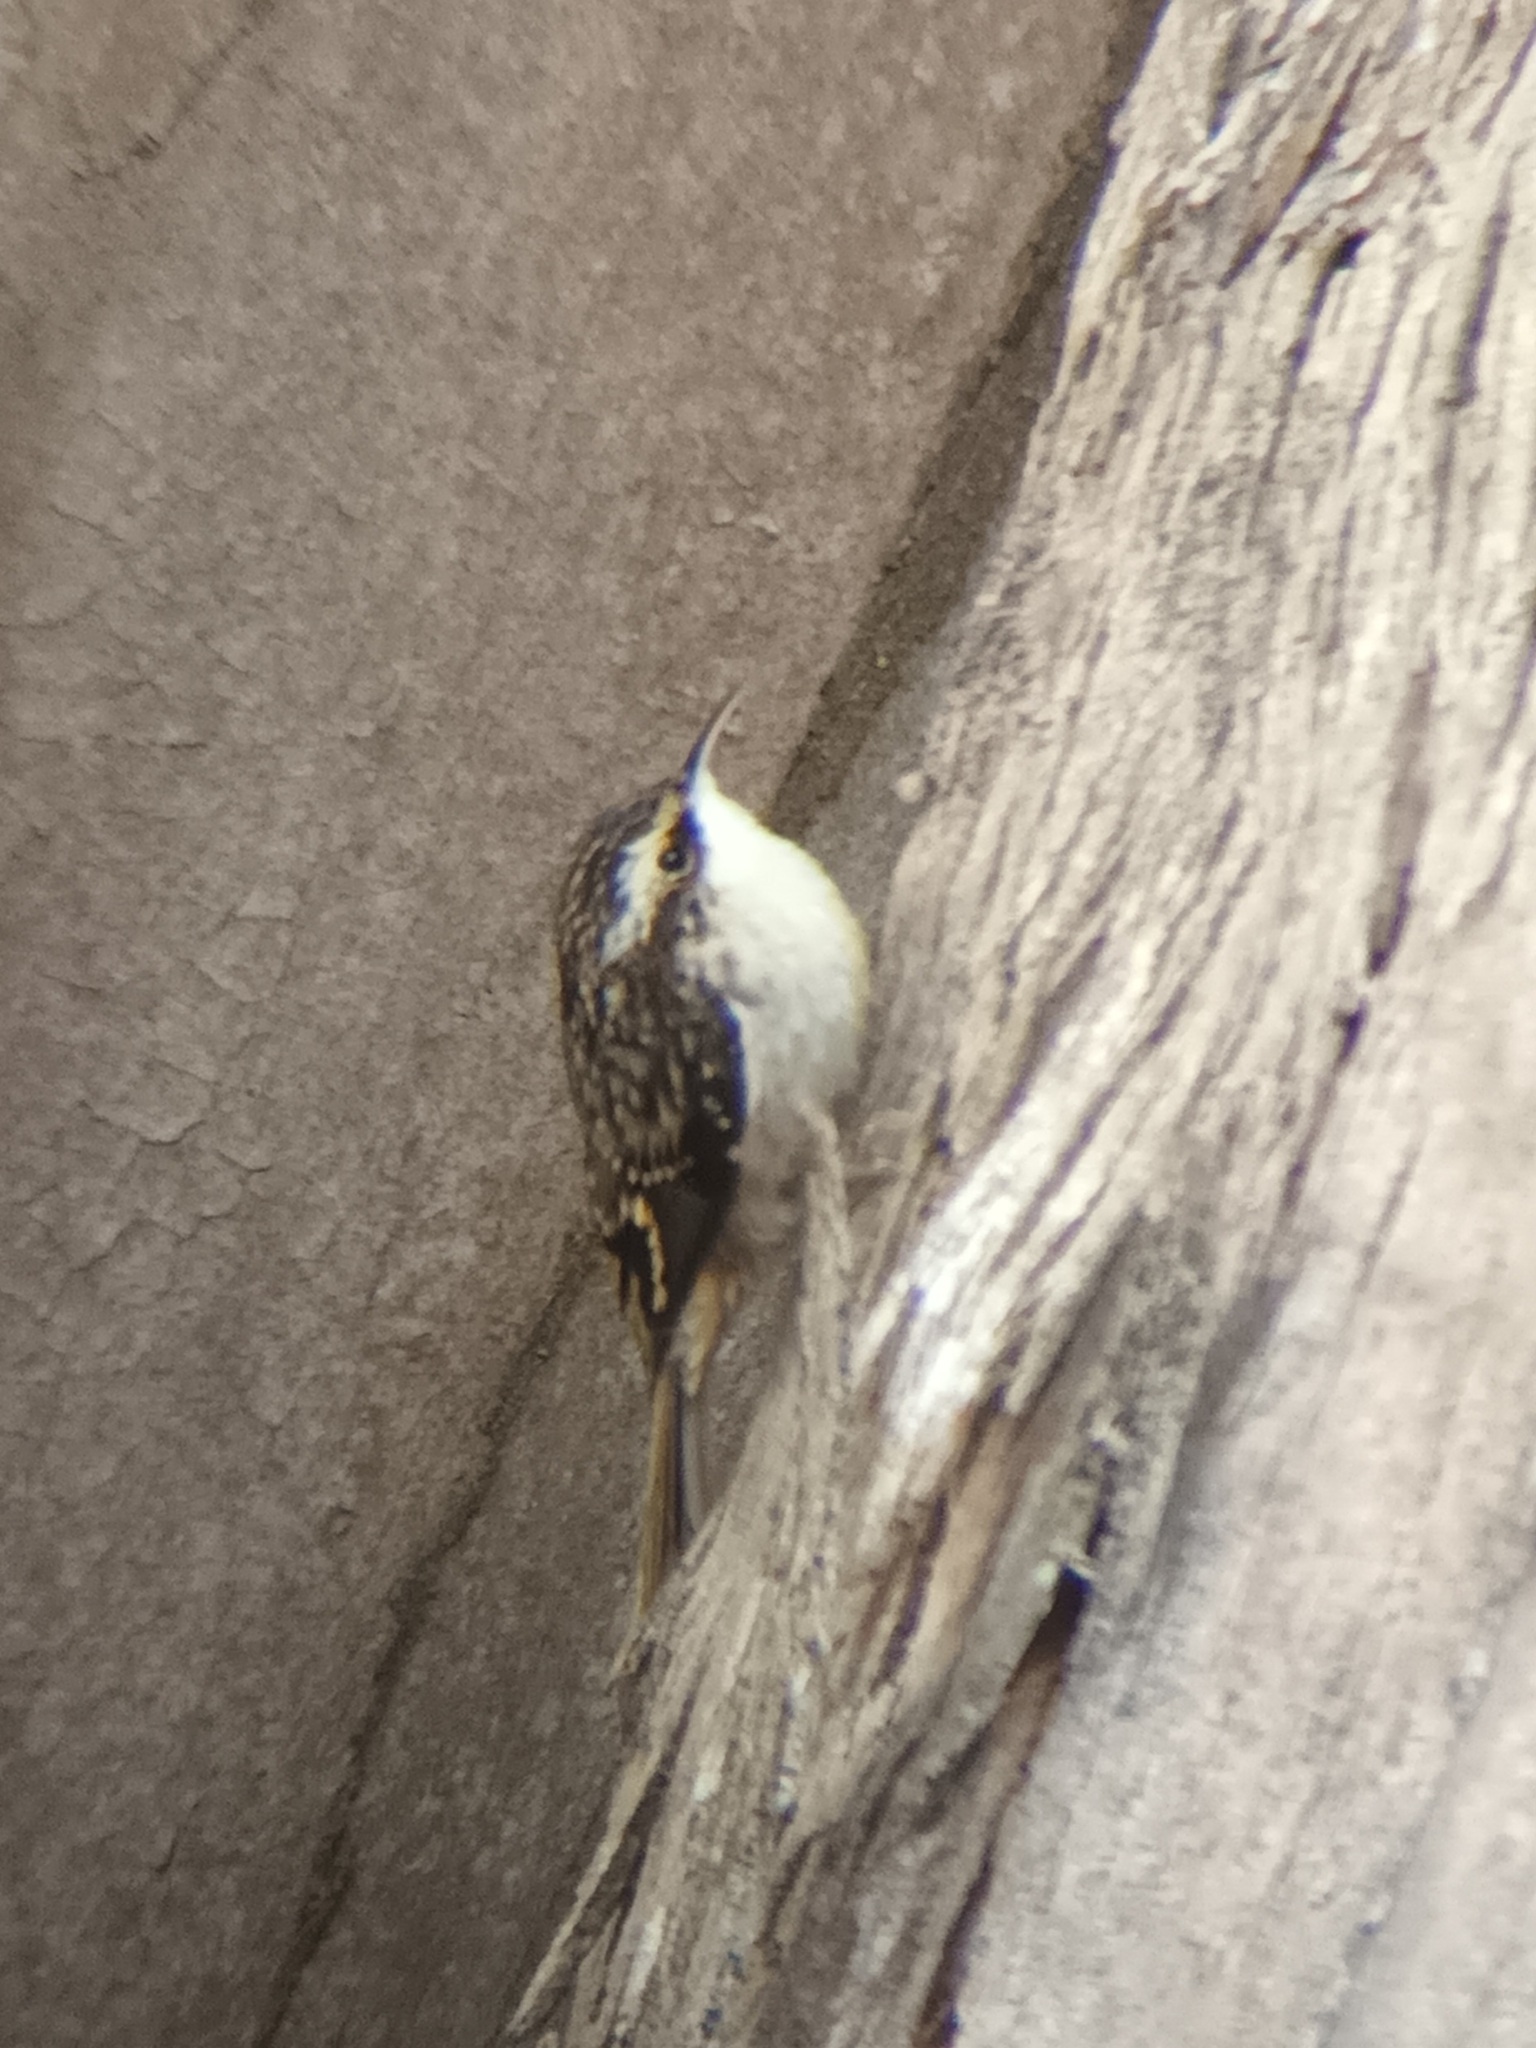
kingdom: Animalia
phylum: Chordata
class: Aves
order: Passeriformes
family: Certhiidae
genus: Certhia
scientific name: Certhia americana
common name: Brown creeper
